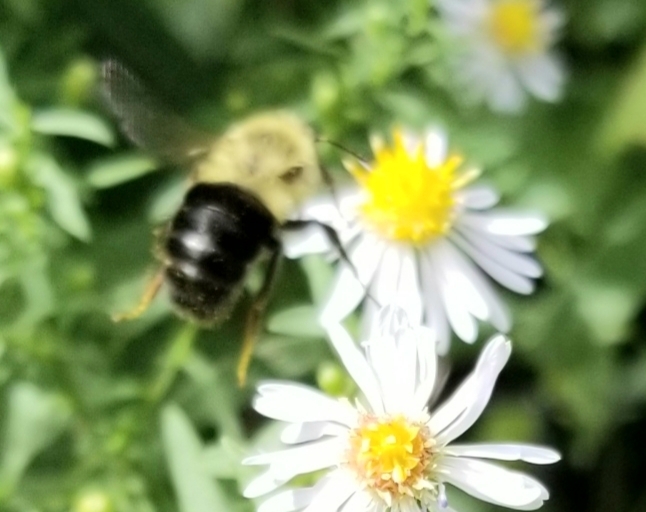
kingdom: Animalia
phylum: Arthropoda
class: Insecta
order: Hymenoptera
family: Apidae
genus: Bombus
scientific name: Bombus impatiens
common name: Common eastern bumble bee
